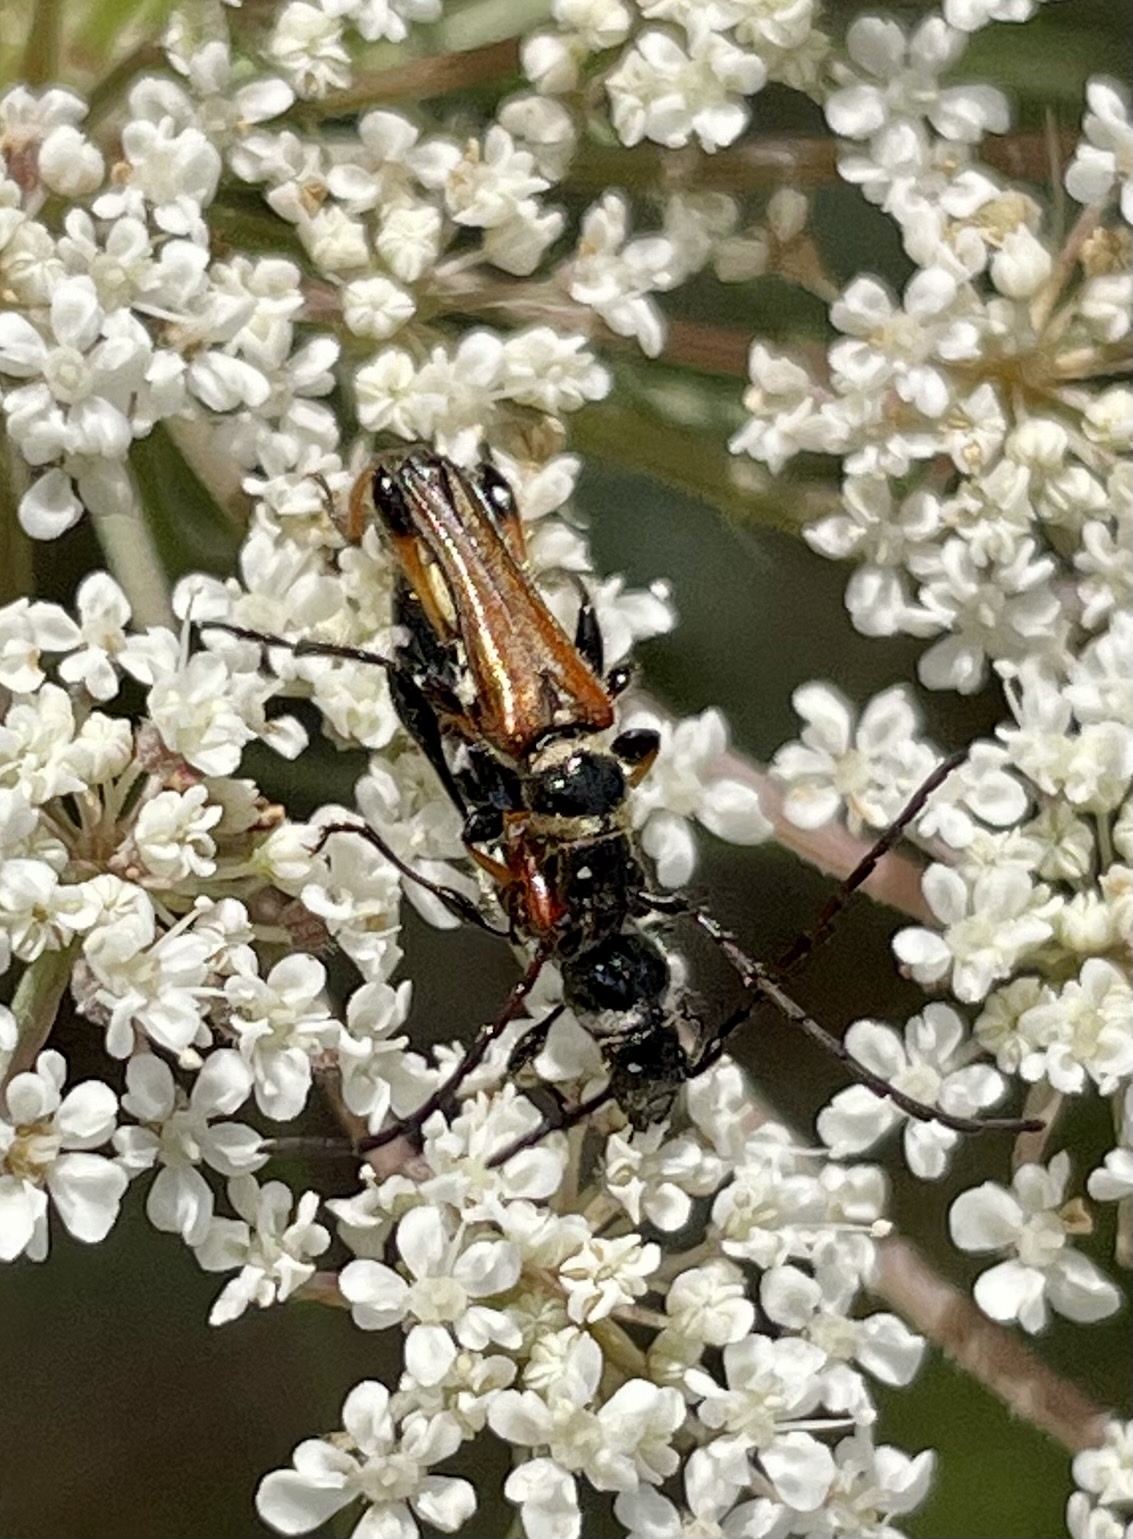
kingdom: Animalia
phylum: Arthropoda
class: Insecta
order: Coleoptera
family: Cerambycidae
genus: Stenopterus
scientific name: Stenopterus ater
